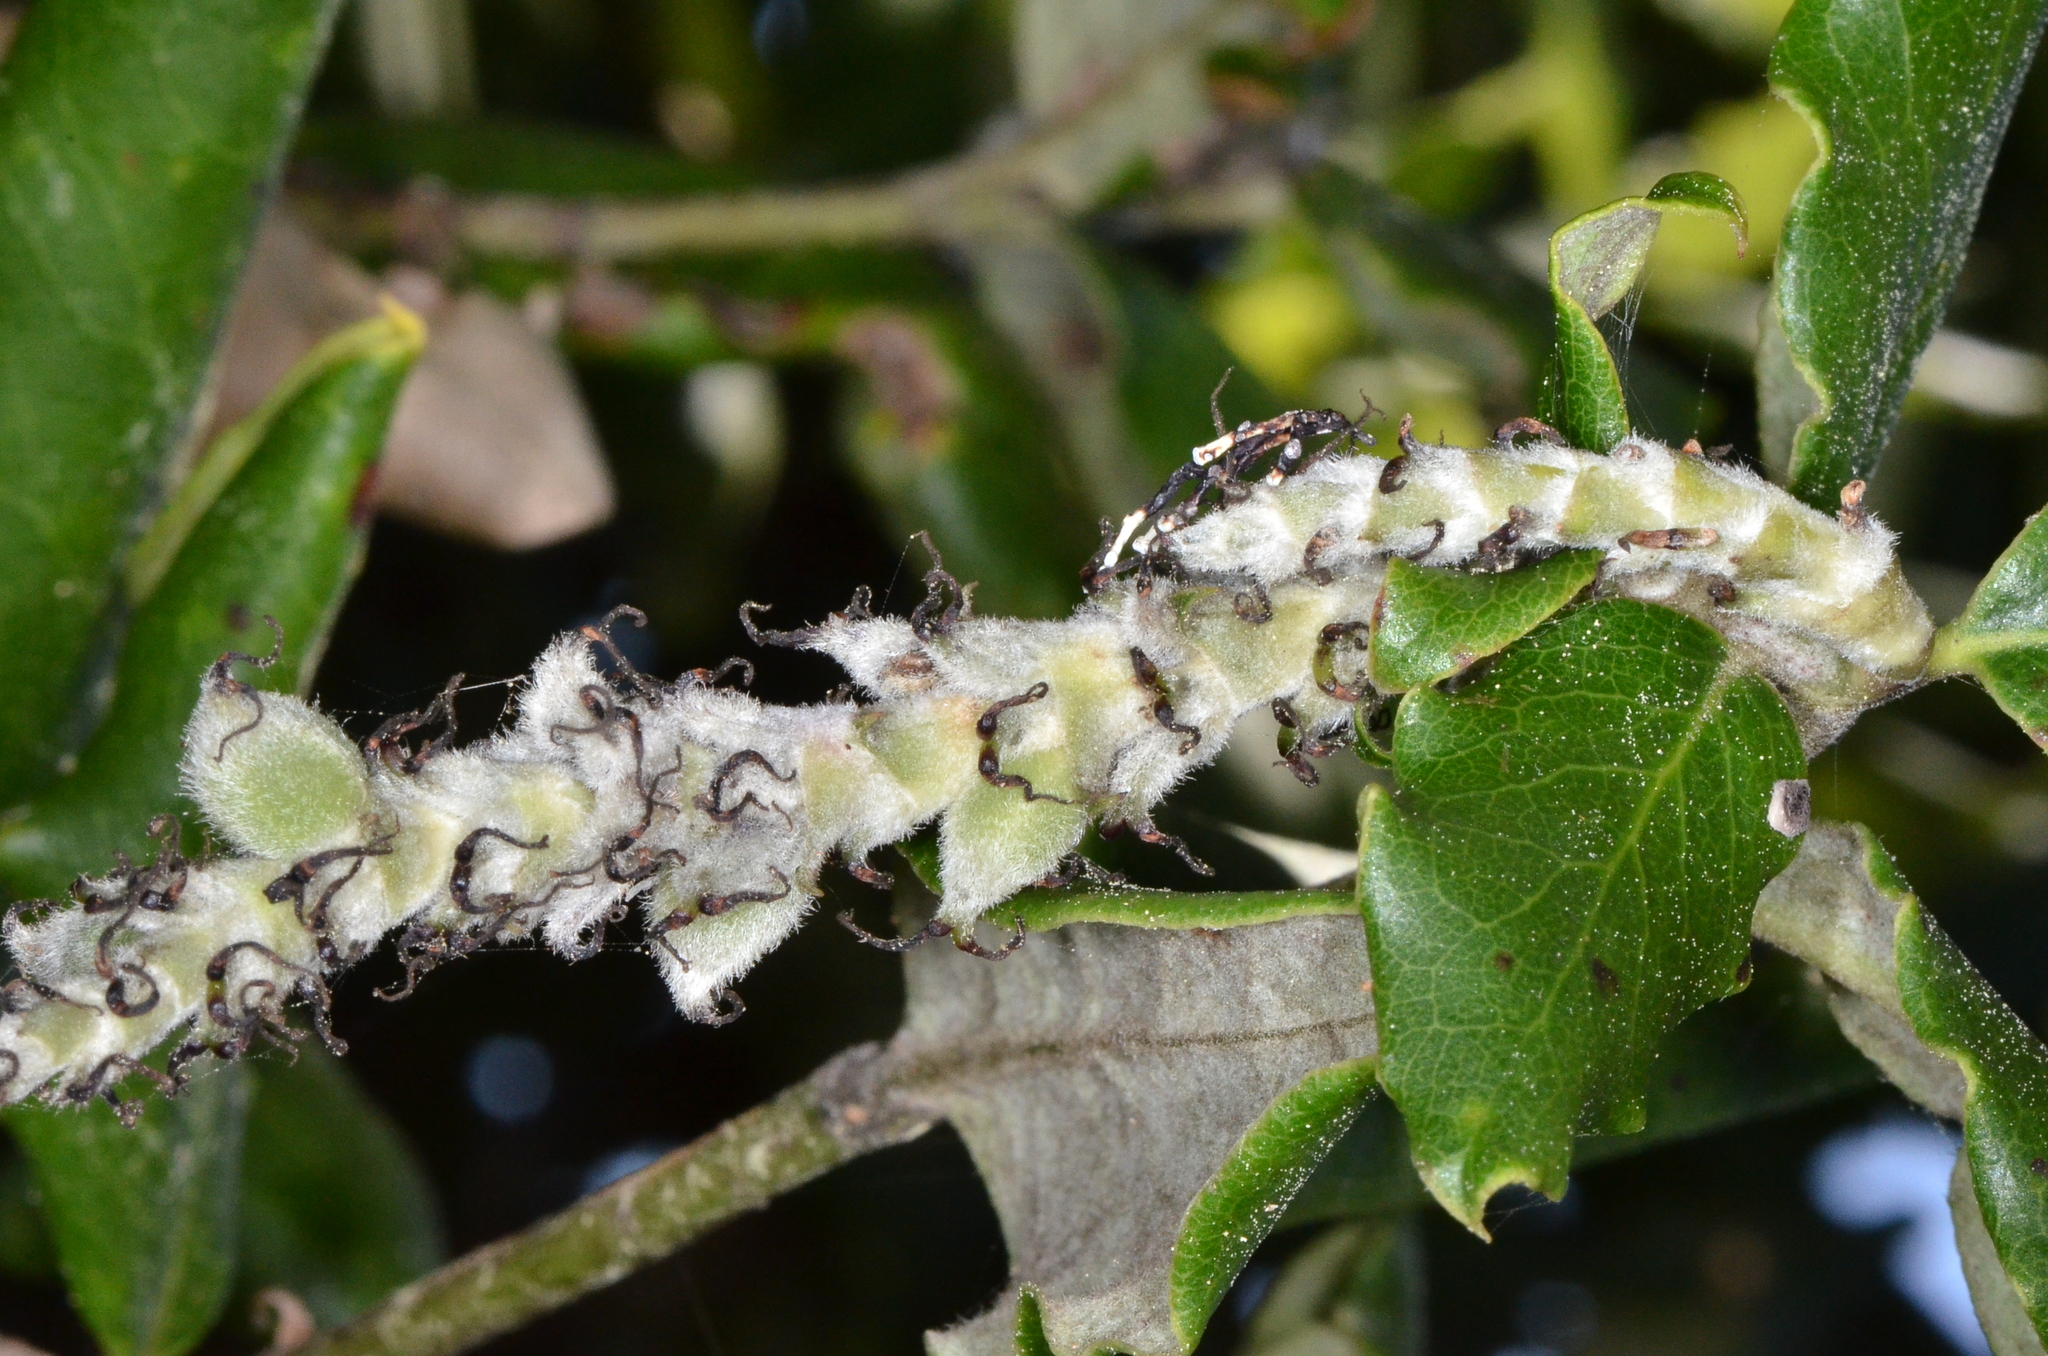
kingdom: Plantae
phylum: Tracheophyta
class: Magnoliopsida
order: Garryales
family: Garryaceae
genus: Garrya
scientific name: Garrya elliptica
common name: Silk-tassel
